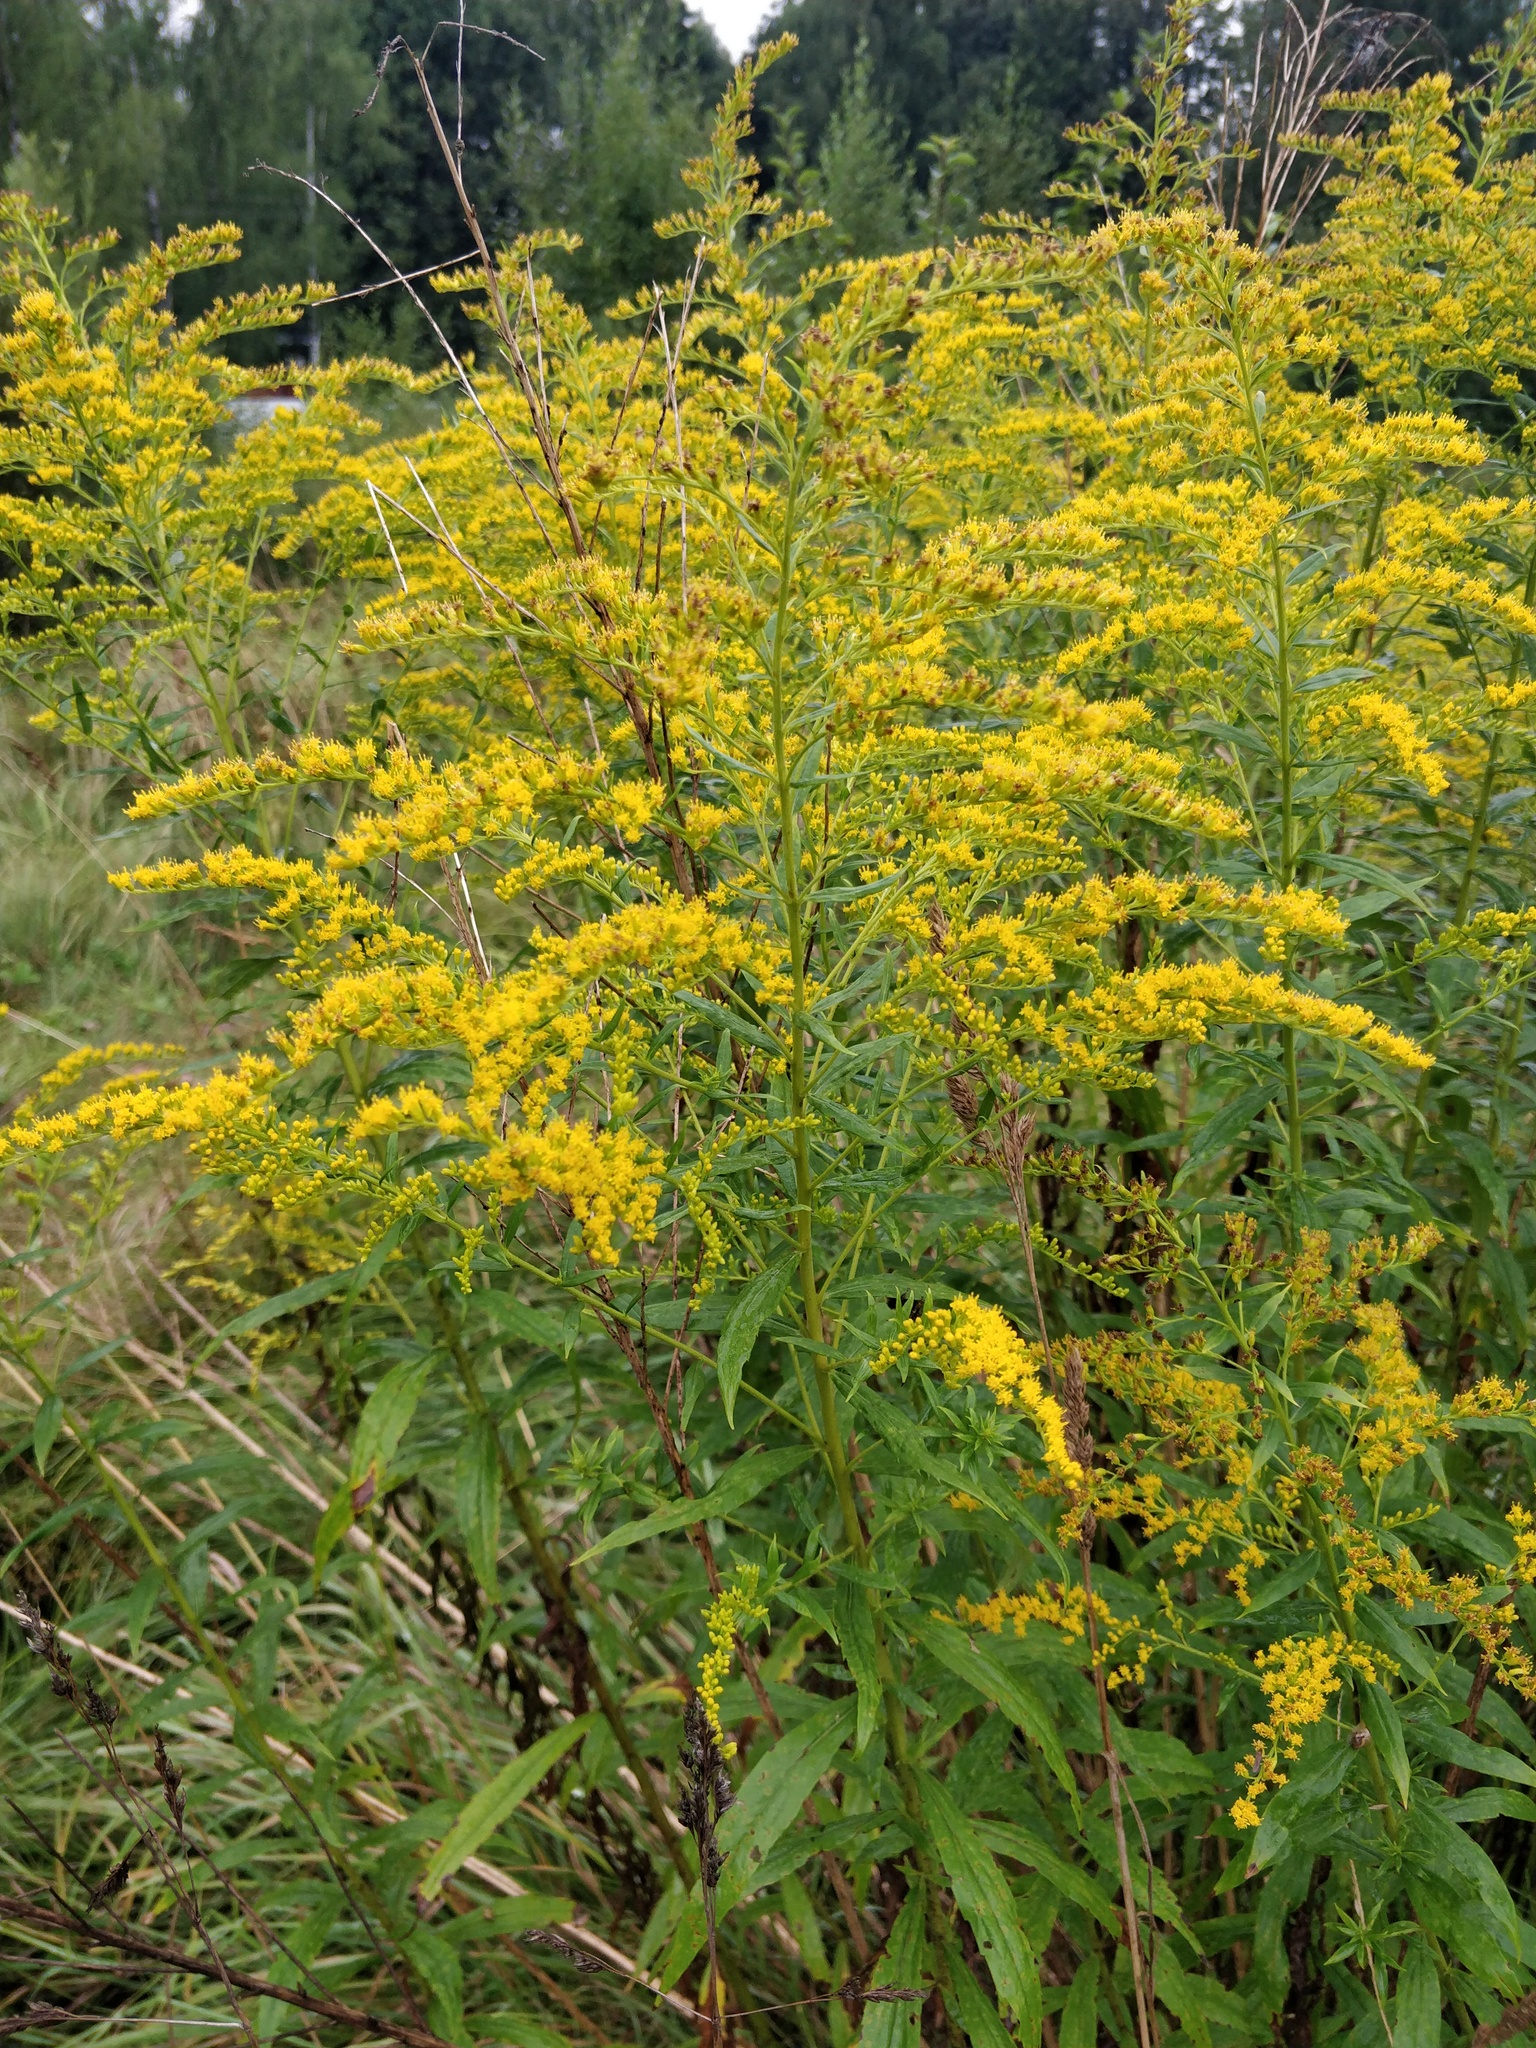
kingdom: Plantae
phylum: Tracheophyta
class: Magnoliopsida
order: Asterales
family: Asteraceae
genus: Solidago
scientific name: Solidago canadensis
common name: Canada goldenrod
